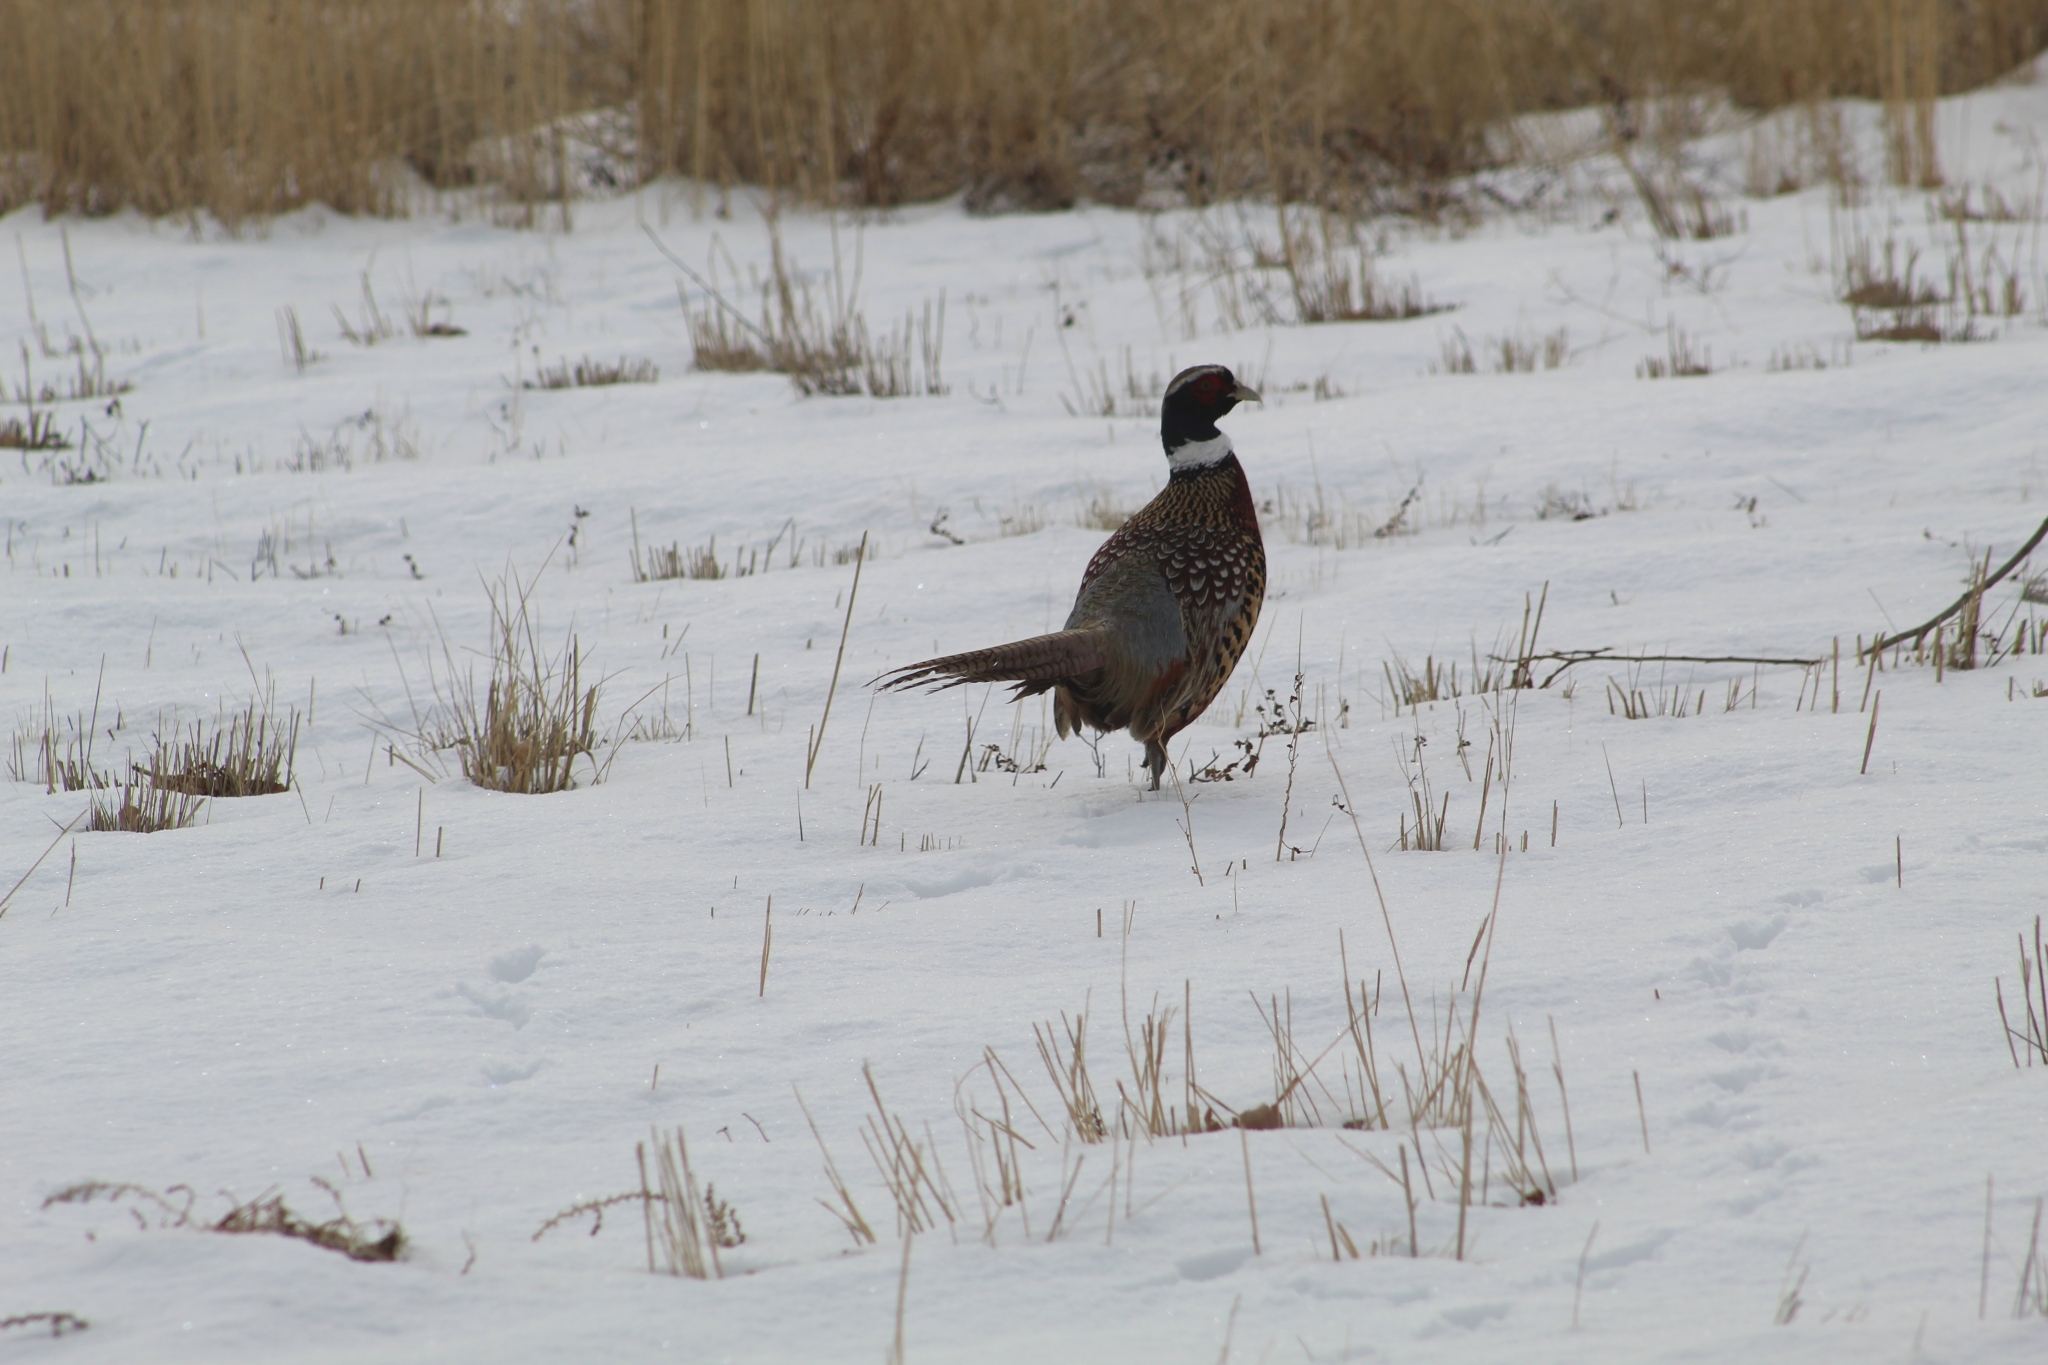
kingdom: Animalia
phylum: Chordata
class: Aves
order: Galliformes
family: Phasianidae
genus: Phasianus
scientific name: Phasianus colchicus
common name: Common pheasant
